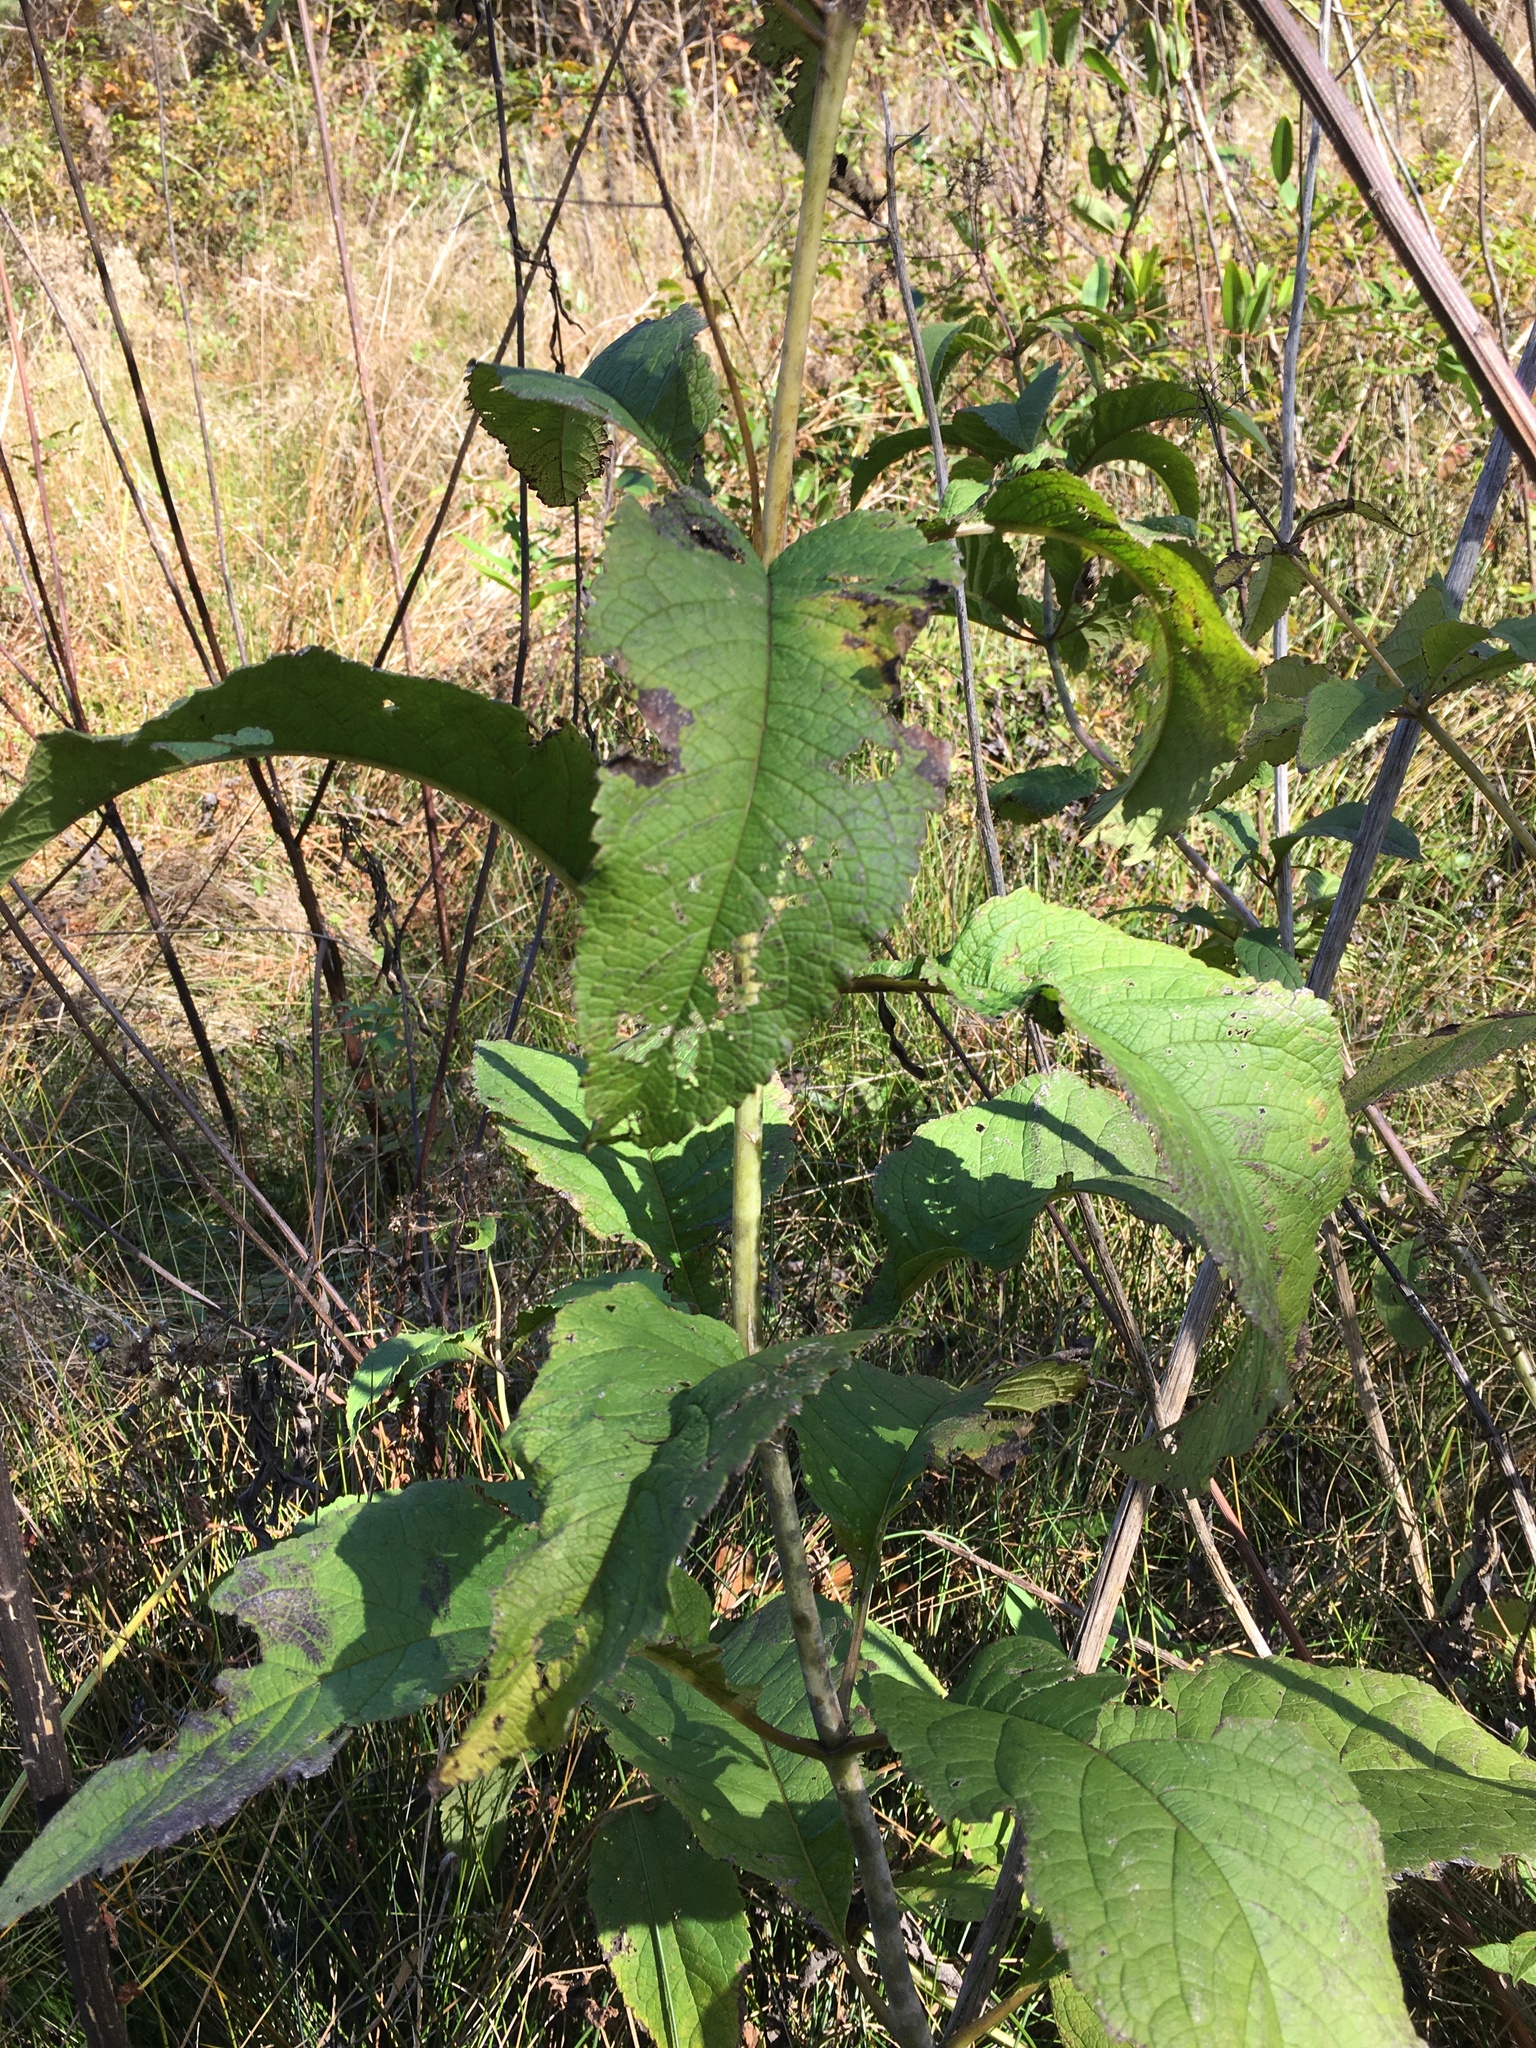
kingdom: Plantae
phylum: Tracheophyta
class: Magnoliopsida
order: Asterales
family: Asteraceae
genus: Eutrochium
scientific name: Eutrochium fistulosum
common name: Trumpetweed
